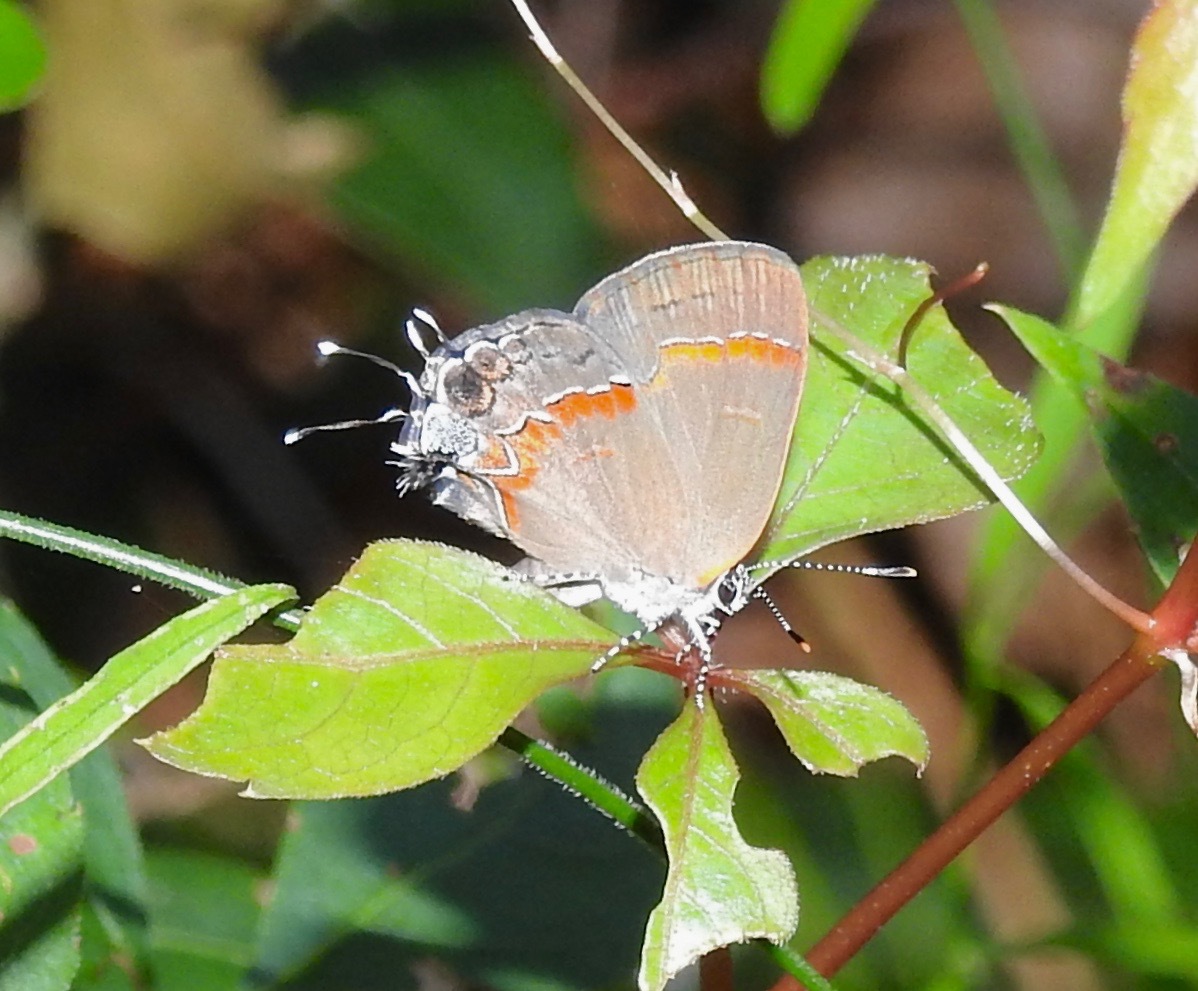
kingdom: Animalia
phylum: Arthropoda
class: Insecta
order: Lepidoptera
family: Lycaenidae
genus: Calycopis
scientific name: Calycopis cecrops
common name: Red-banded hairstreak
